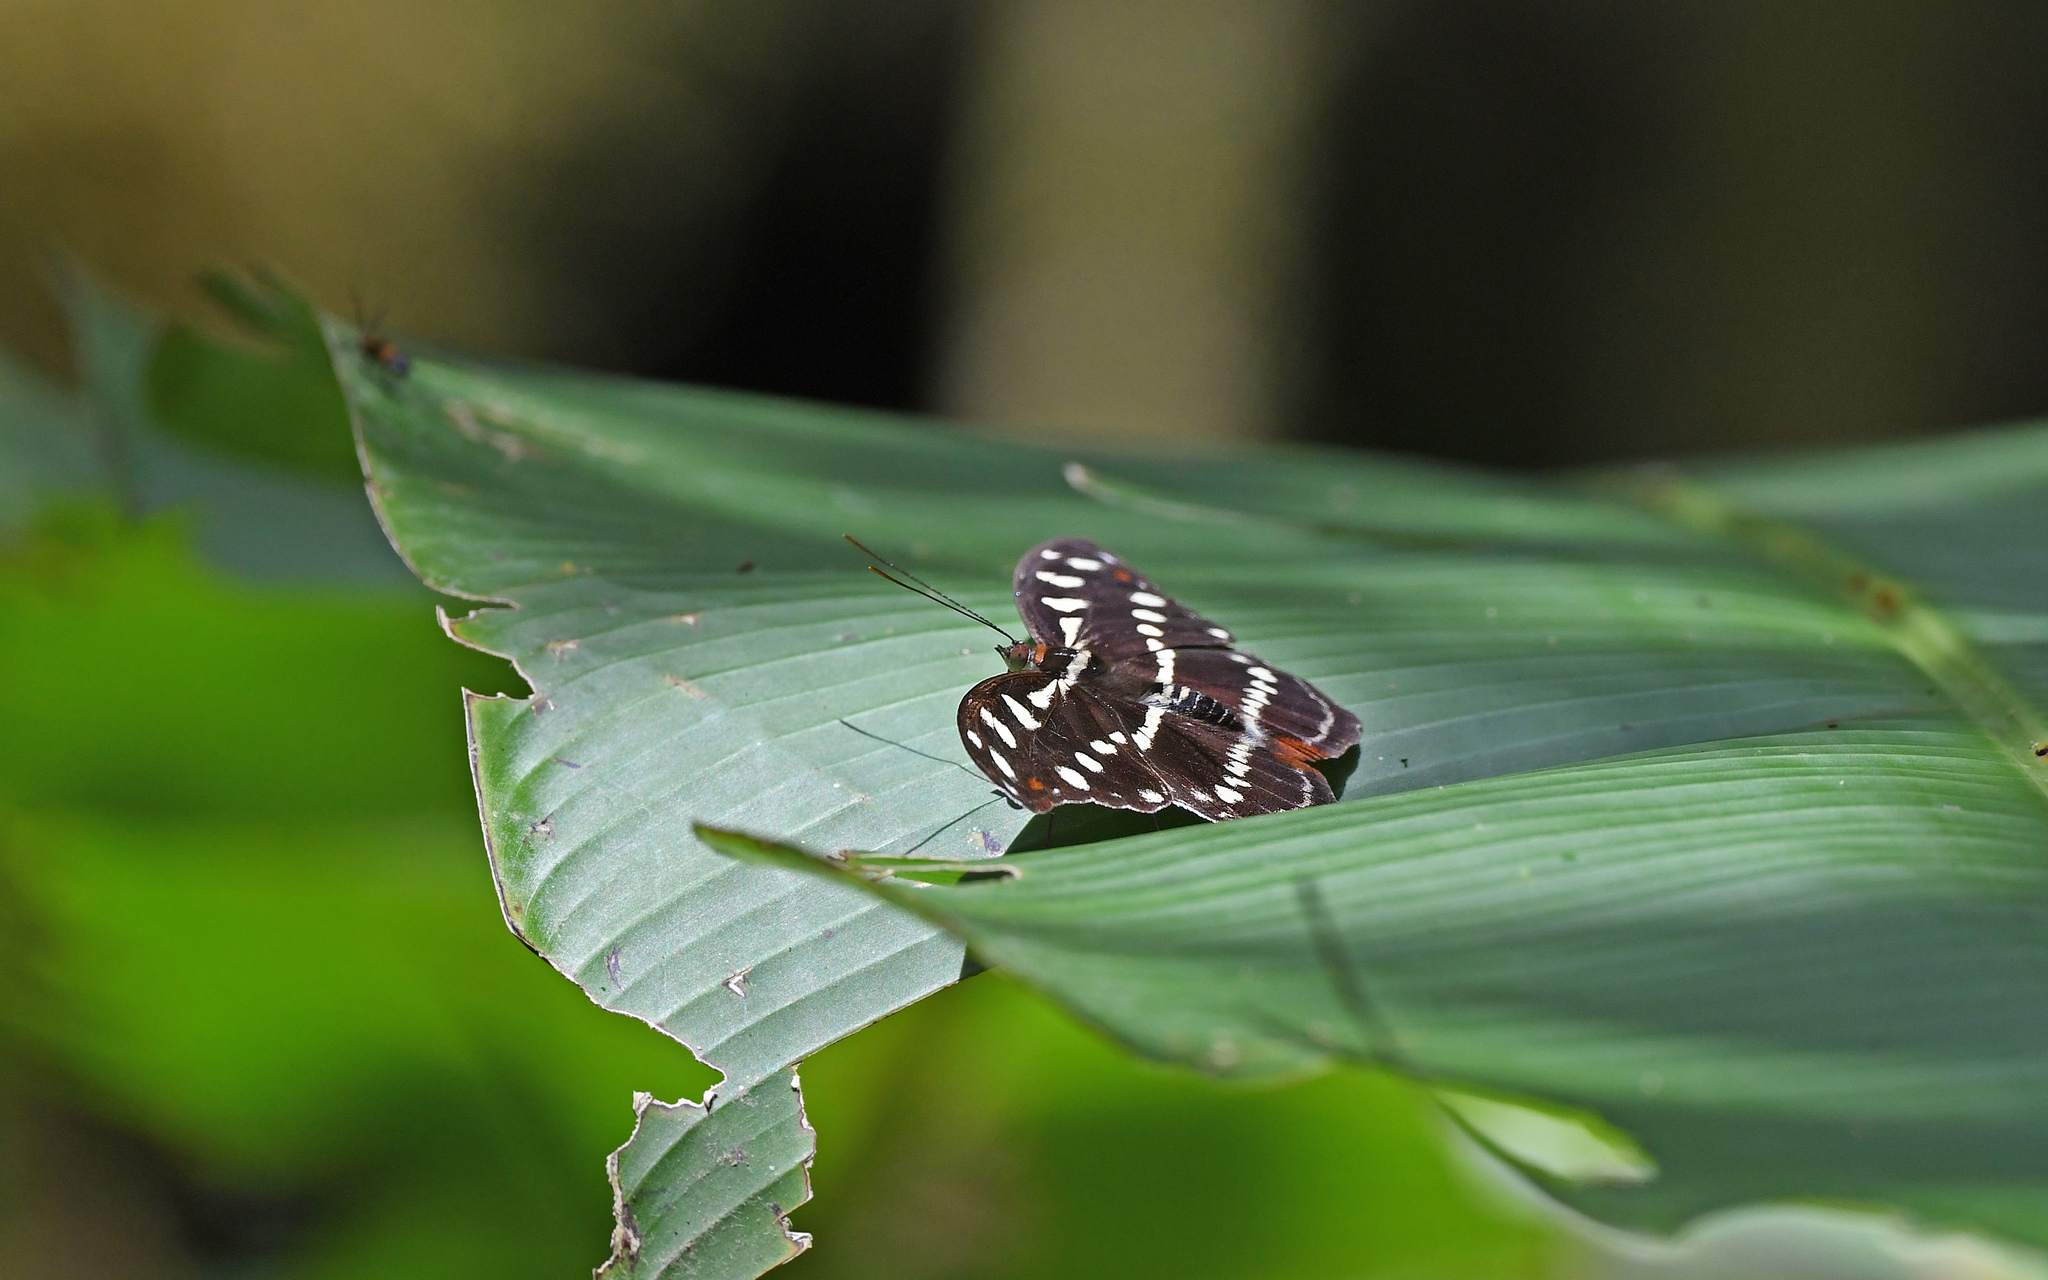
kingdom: Animalia
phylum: Arthropoda
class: Insecta
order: Lepidoptera
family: Nymphalidae
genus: Catonephele
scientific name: Catonephele acontius
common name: Unspotted firewing
